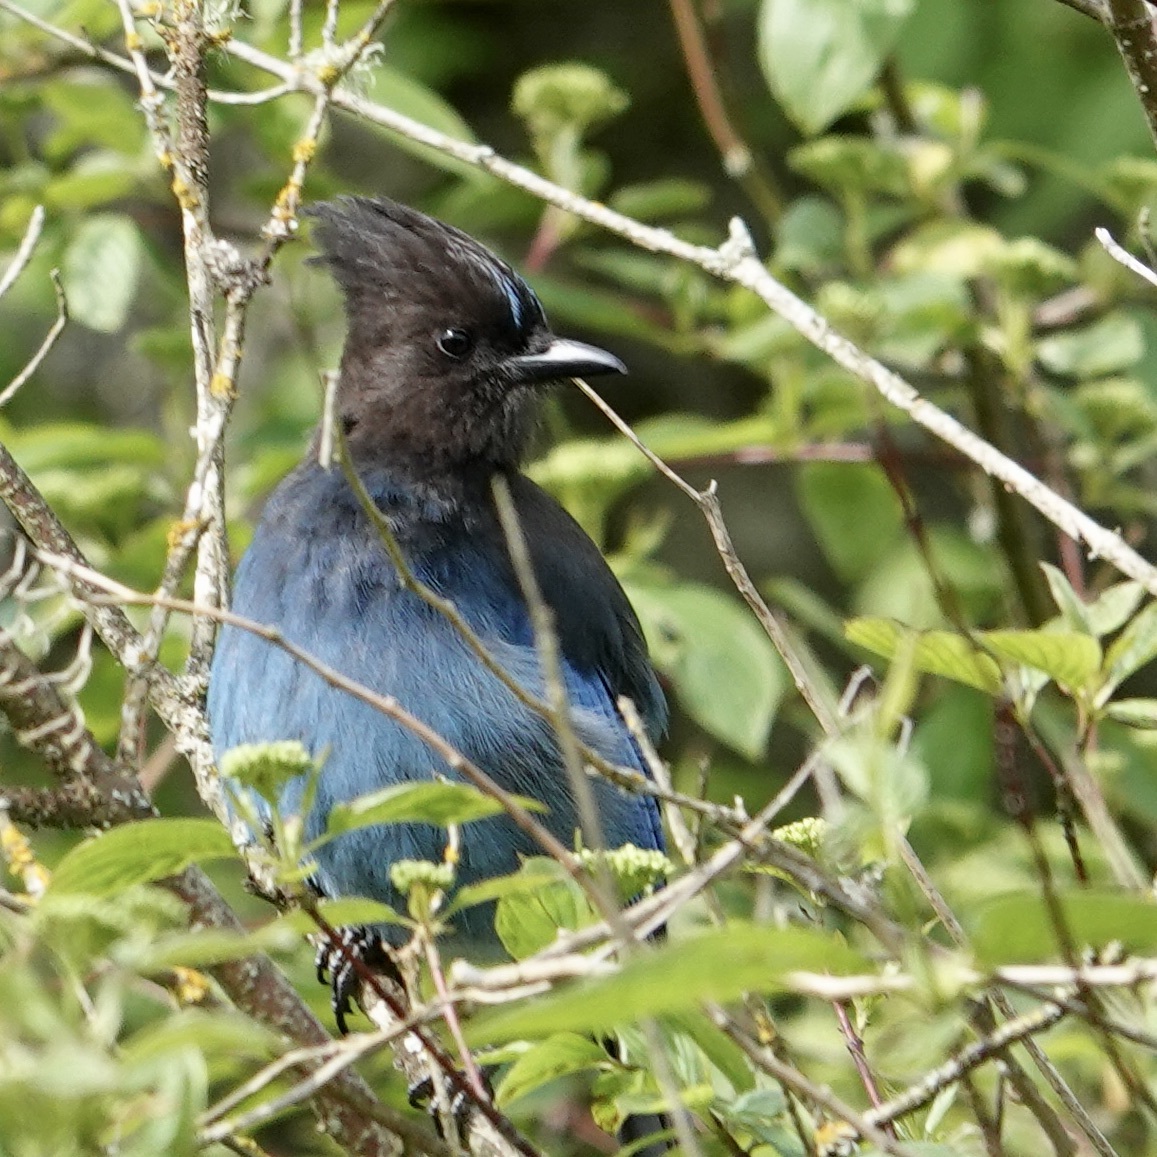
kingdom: Animalia
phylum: Chordata
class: Aves
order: Passeriformes
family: Corvidae
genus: Cyanocitta
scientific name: Cyanocitta stelleri
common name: Steller's jay
